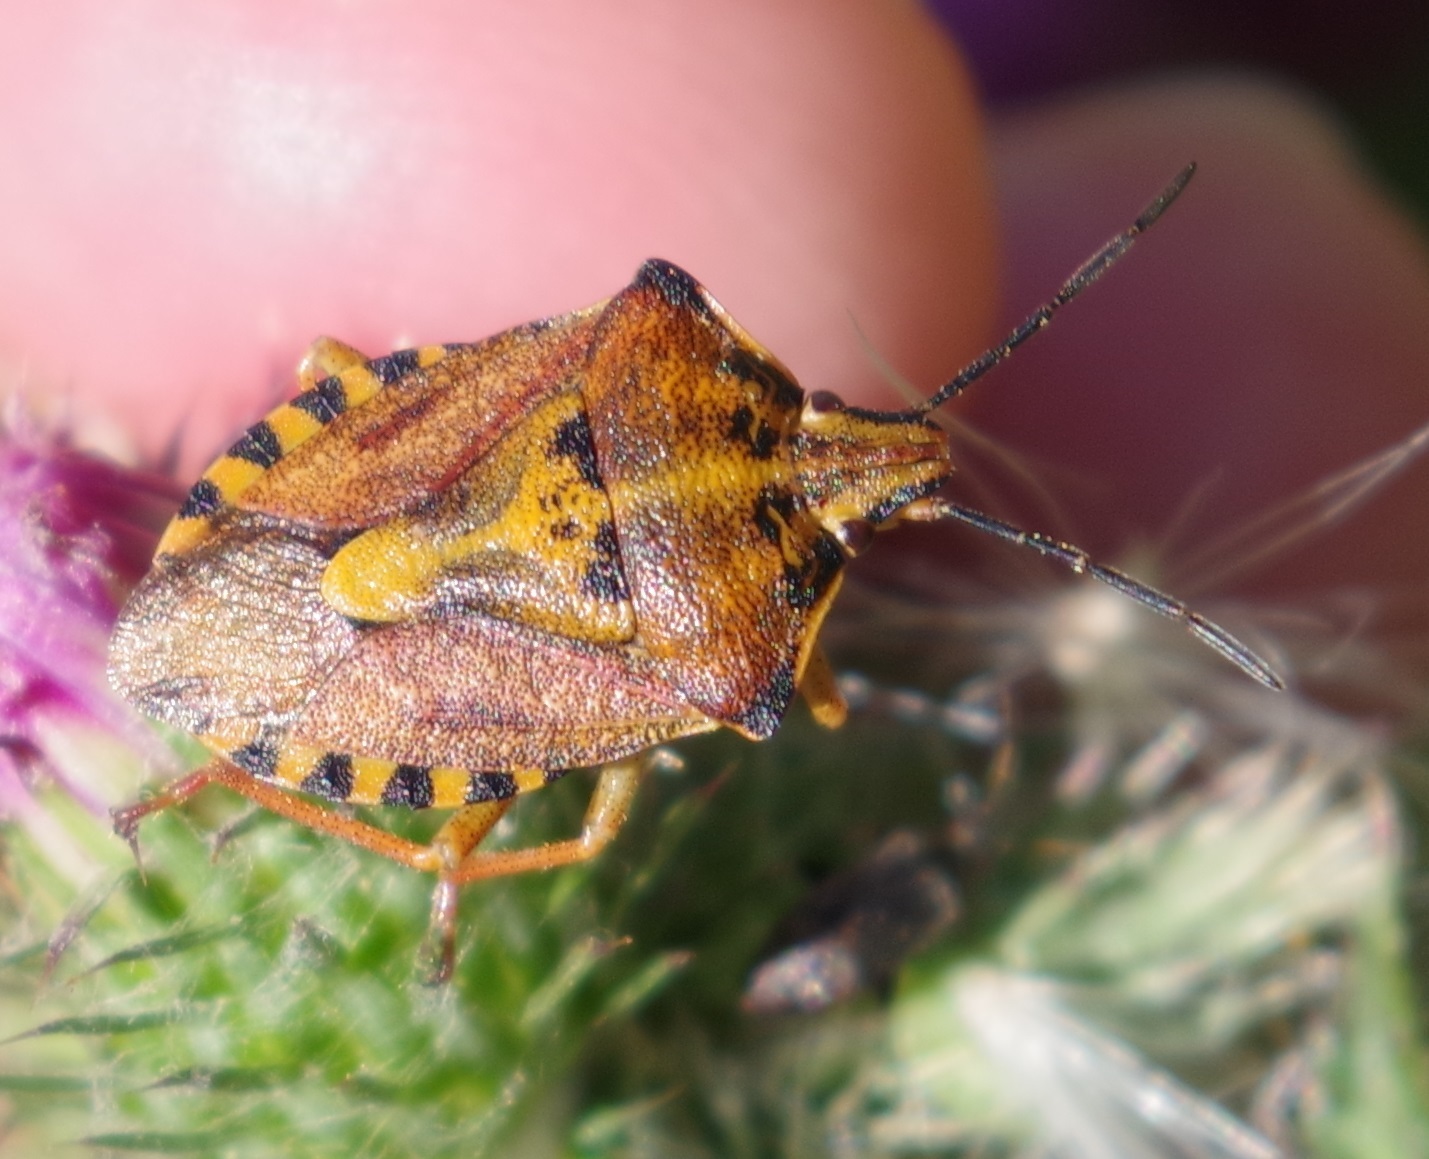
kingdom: Animalia
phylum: Arthropoda
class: Insecta
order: Hemiptera
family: Pentatomidae
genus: Carpocoris
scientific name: Carpocoris purpureipennis
